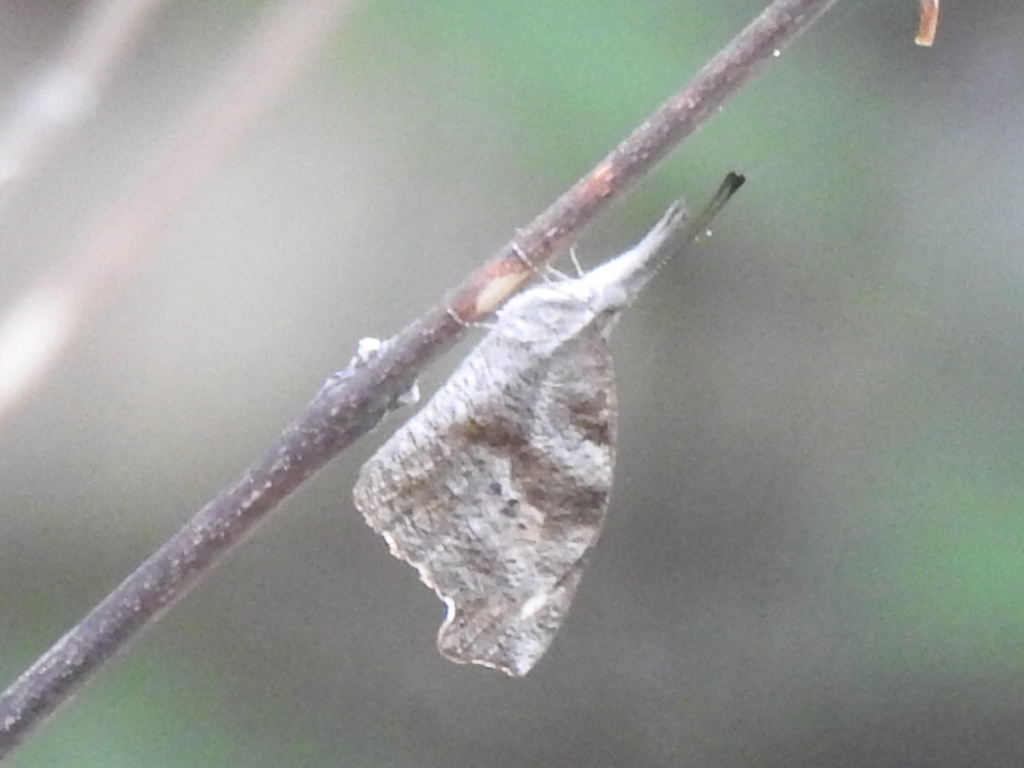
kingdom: Animalia
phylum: Arthropoda
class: Insecta
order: Lepidoptera
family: Nymphalidae
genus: Libytheana
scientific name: Libytheana carinenta
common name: American snout
